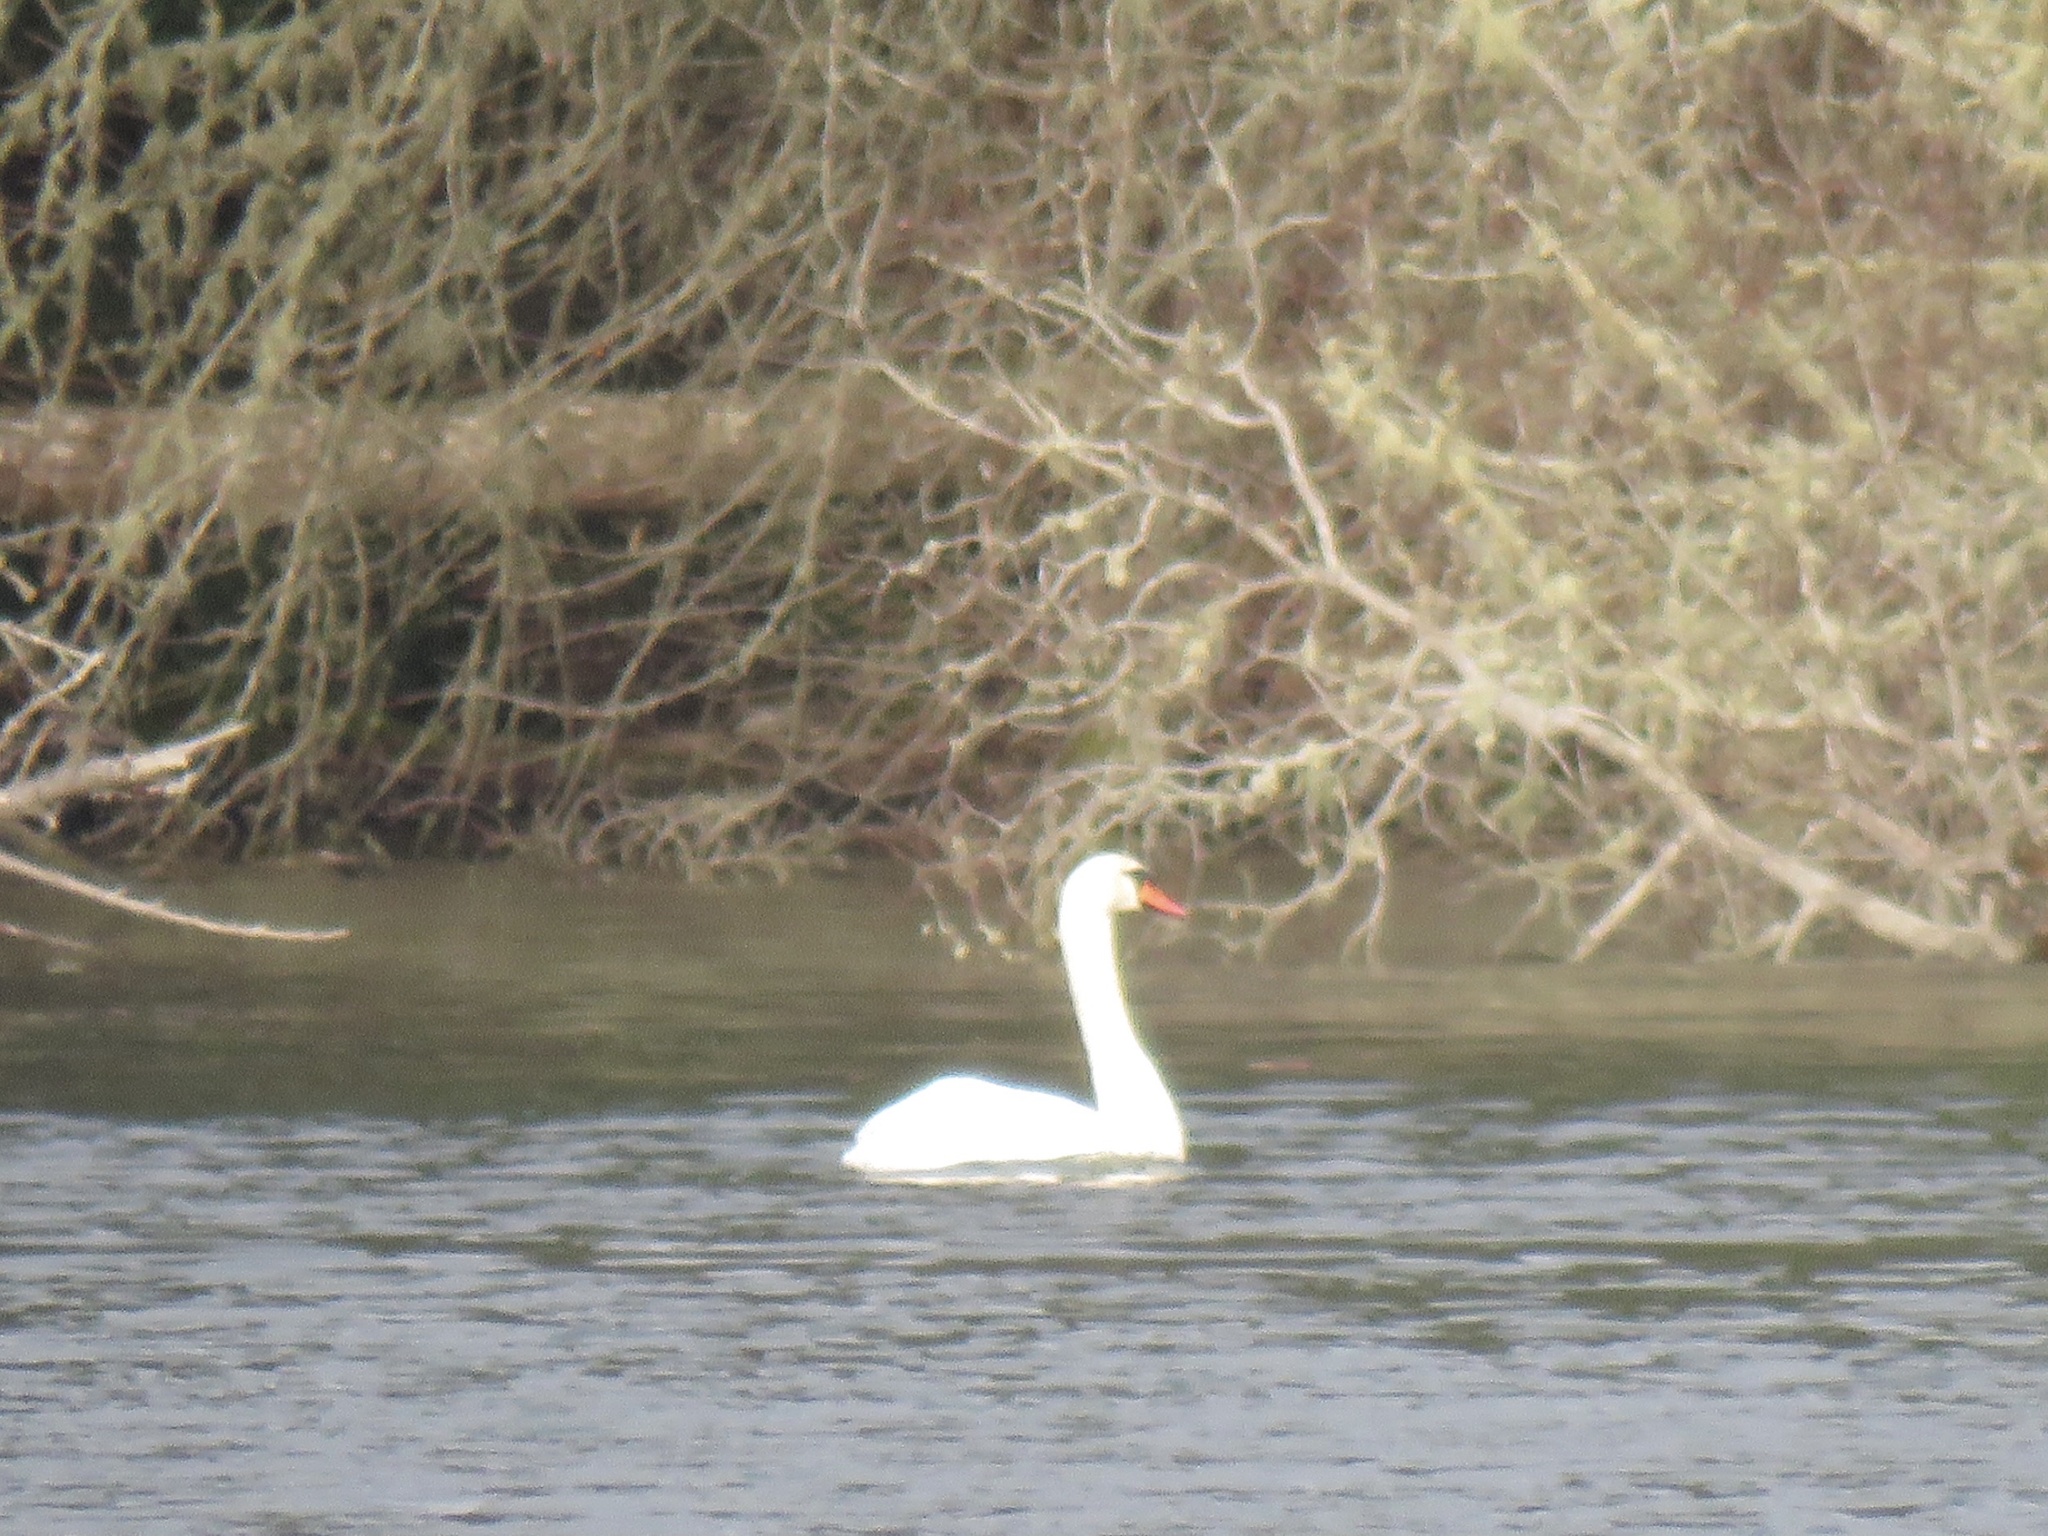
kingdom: Animalia
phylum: Chordata
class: Aves
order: Anseriformes
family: Anatidae
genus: Cygnus
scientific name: Cygnus olor
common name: Mute swan
